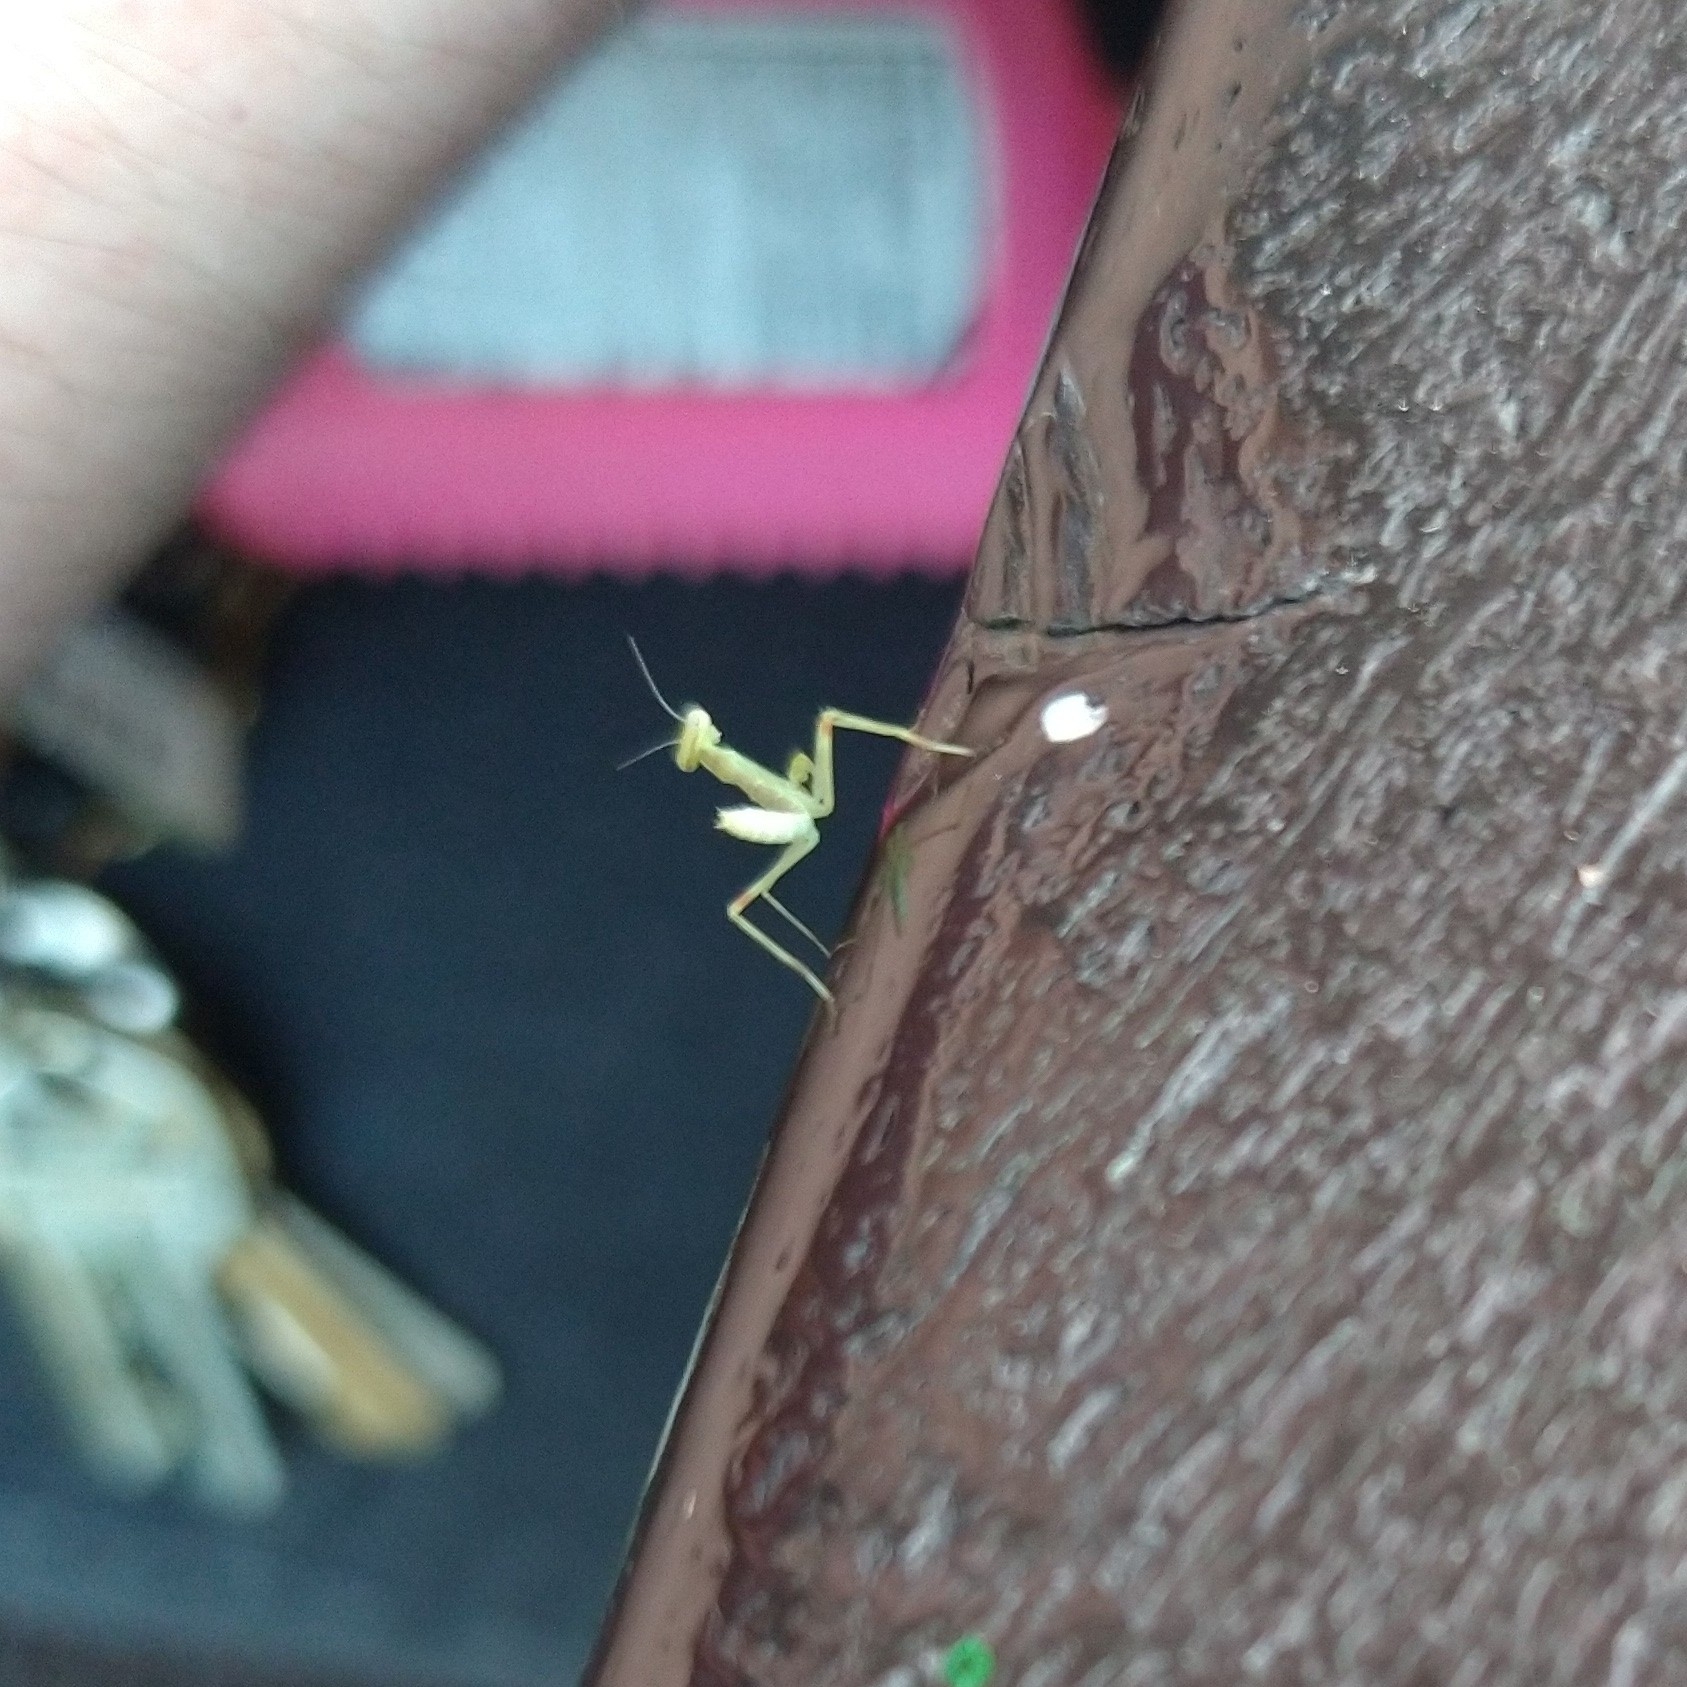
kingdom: Animalia
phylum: Arthropoda
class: Insecta
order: Mantodea
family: Mantidae
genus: Stagmomantis
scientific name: Stagmomantis
